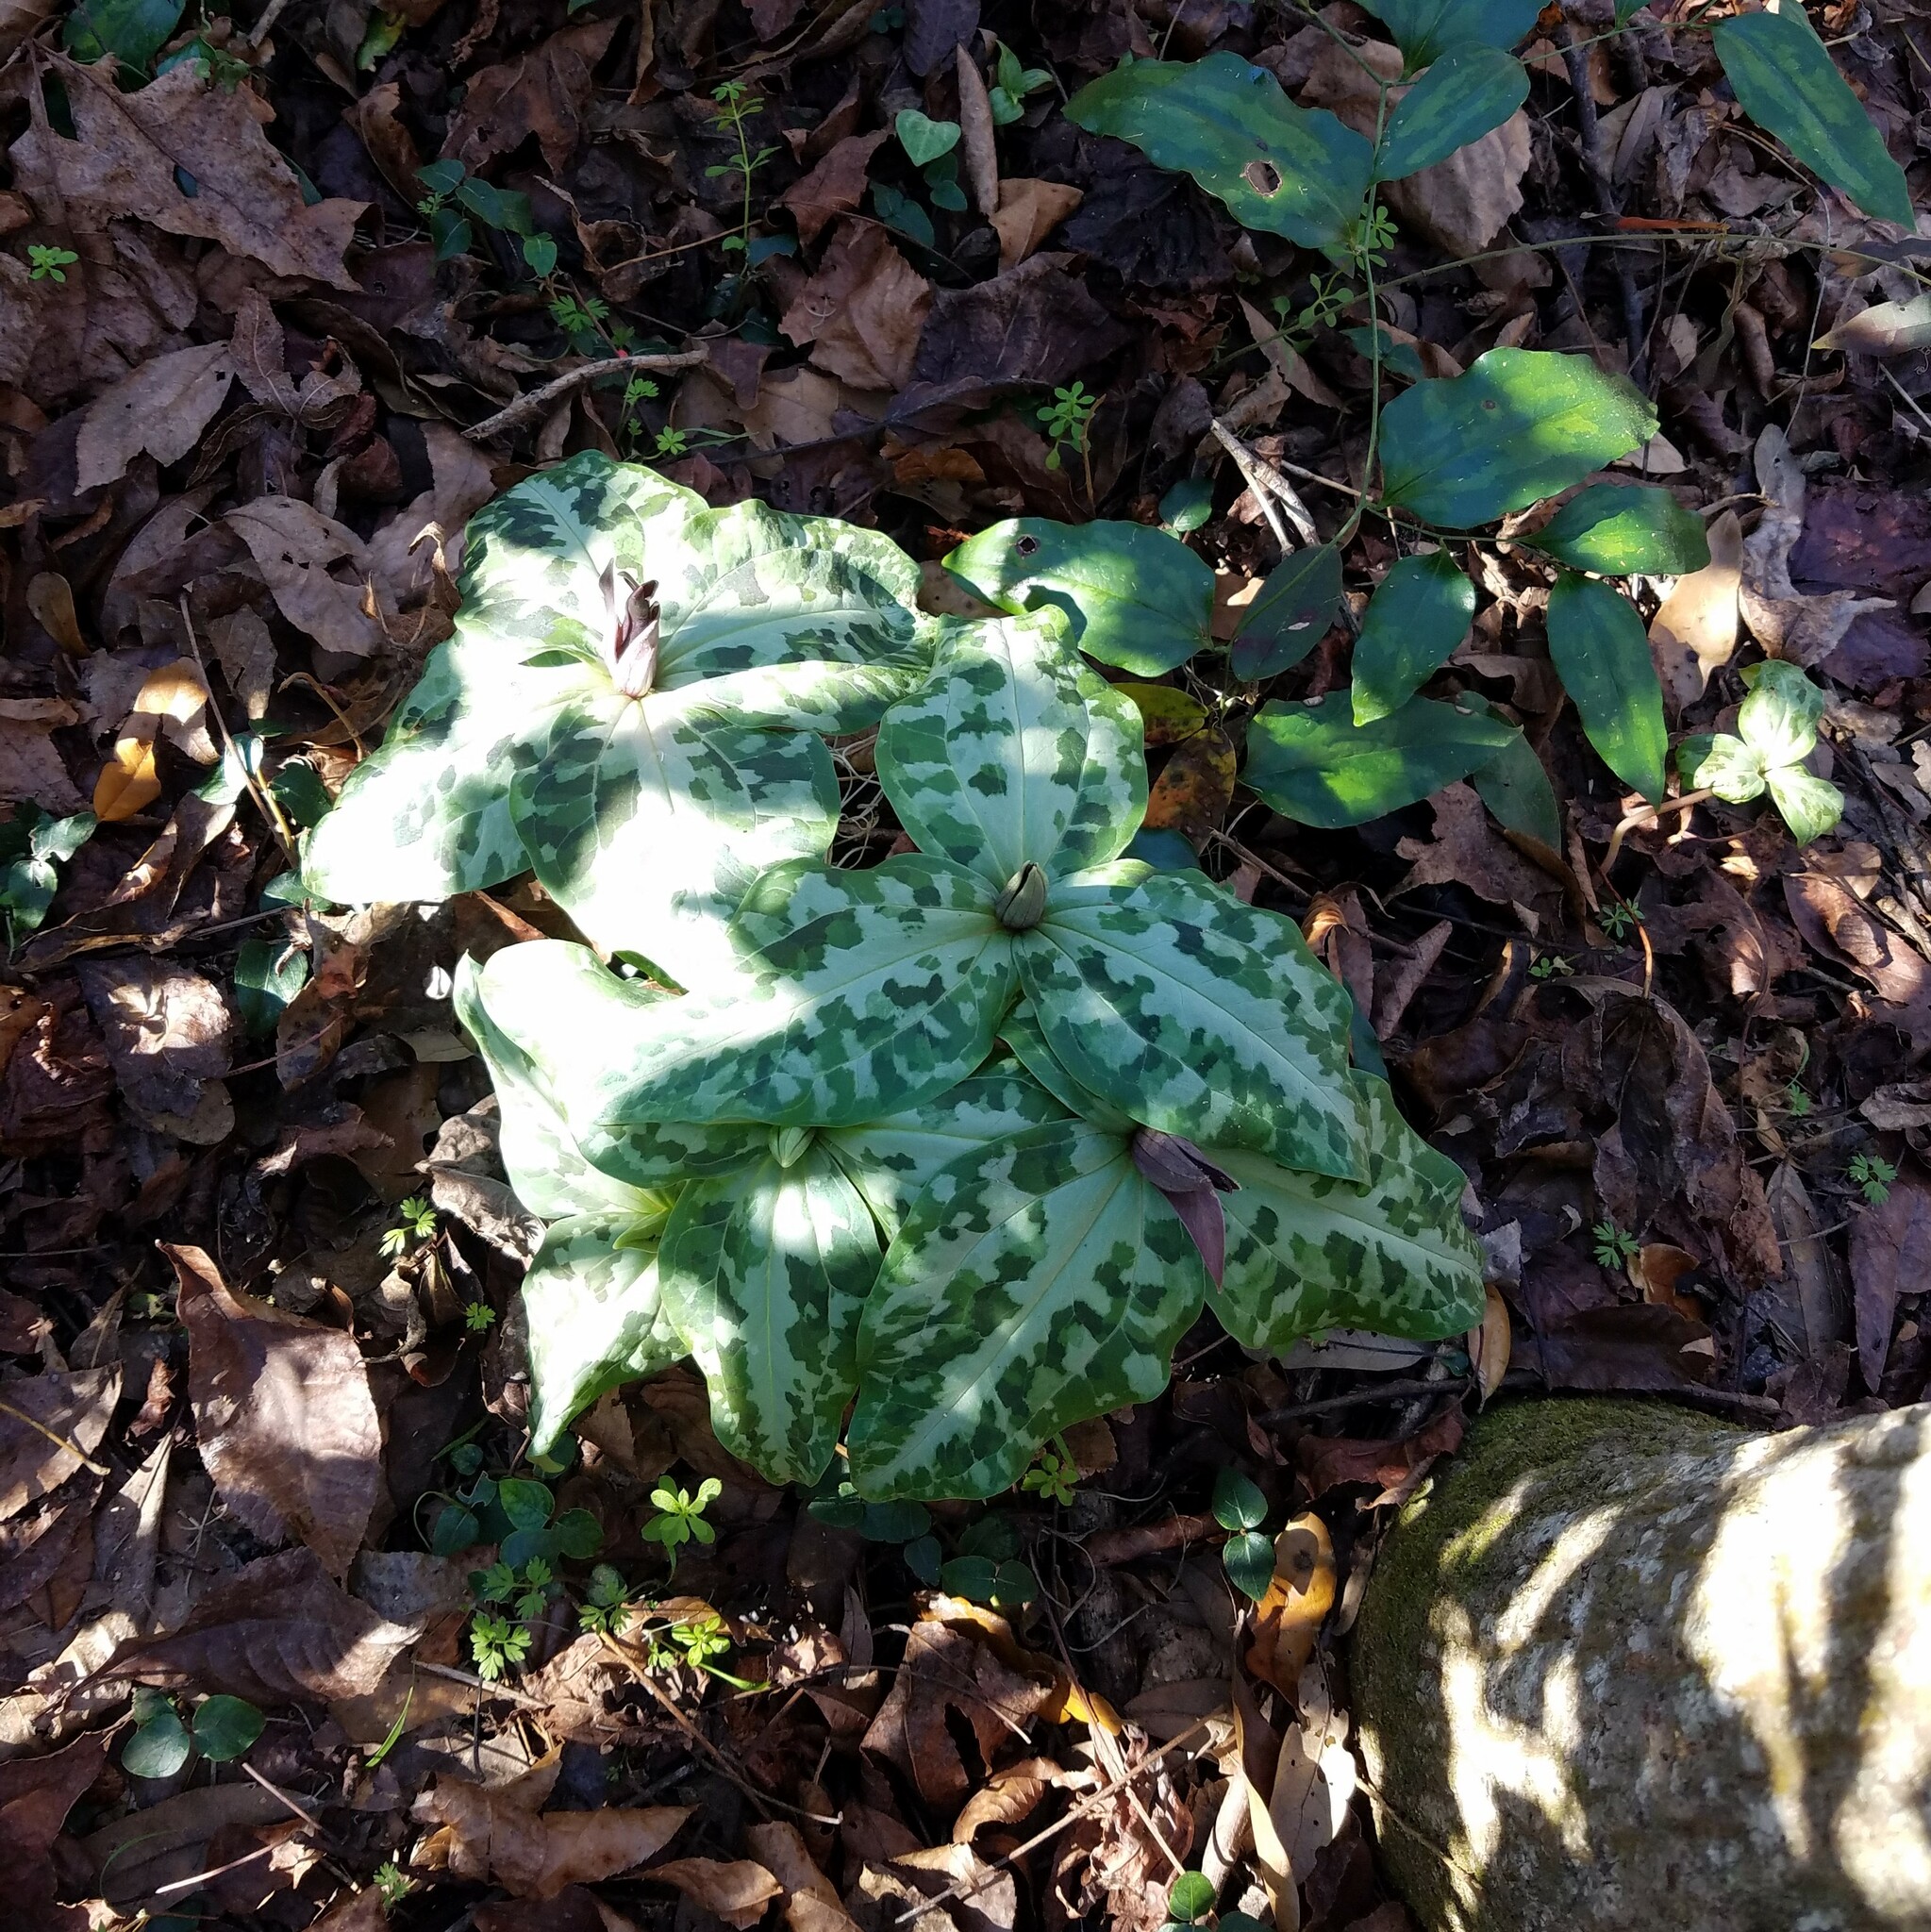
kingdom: Plantae
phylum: Tracheophyta
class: Liliopsida
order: Liliales
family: Melanthiaceae
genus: Trillium
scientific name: Trillium underwoodii
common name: Longbract wakerobin
